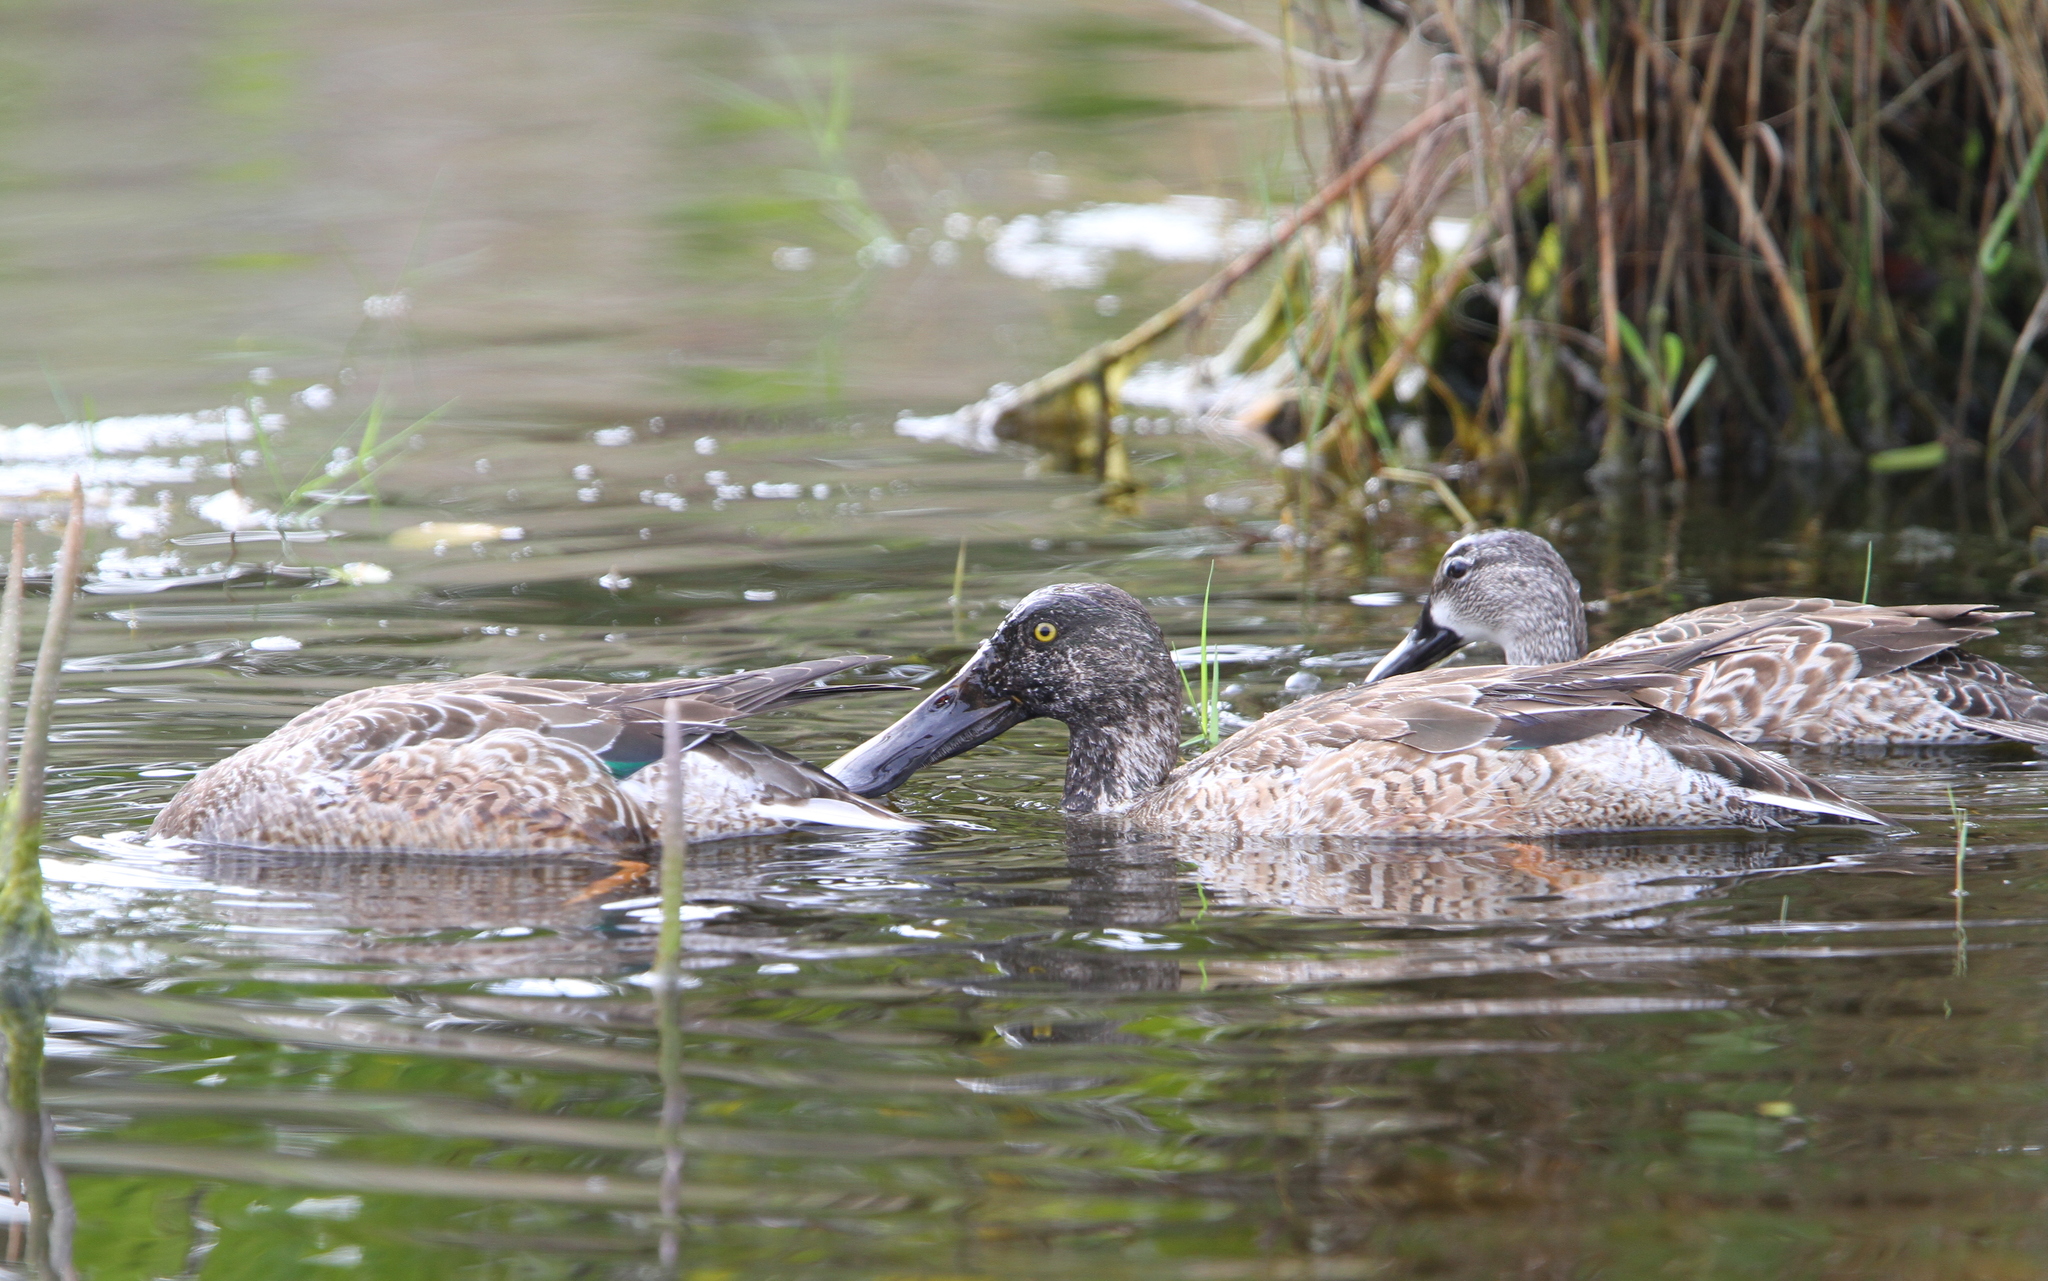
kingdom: Animalia
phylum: Chordata
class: Aves
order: Anseriformes
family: Anatidae
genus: Spatula
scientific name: Spatula clypeata
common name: Northern shoveler
